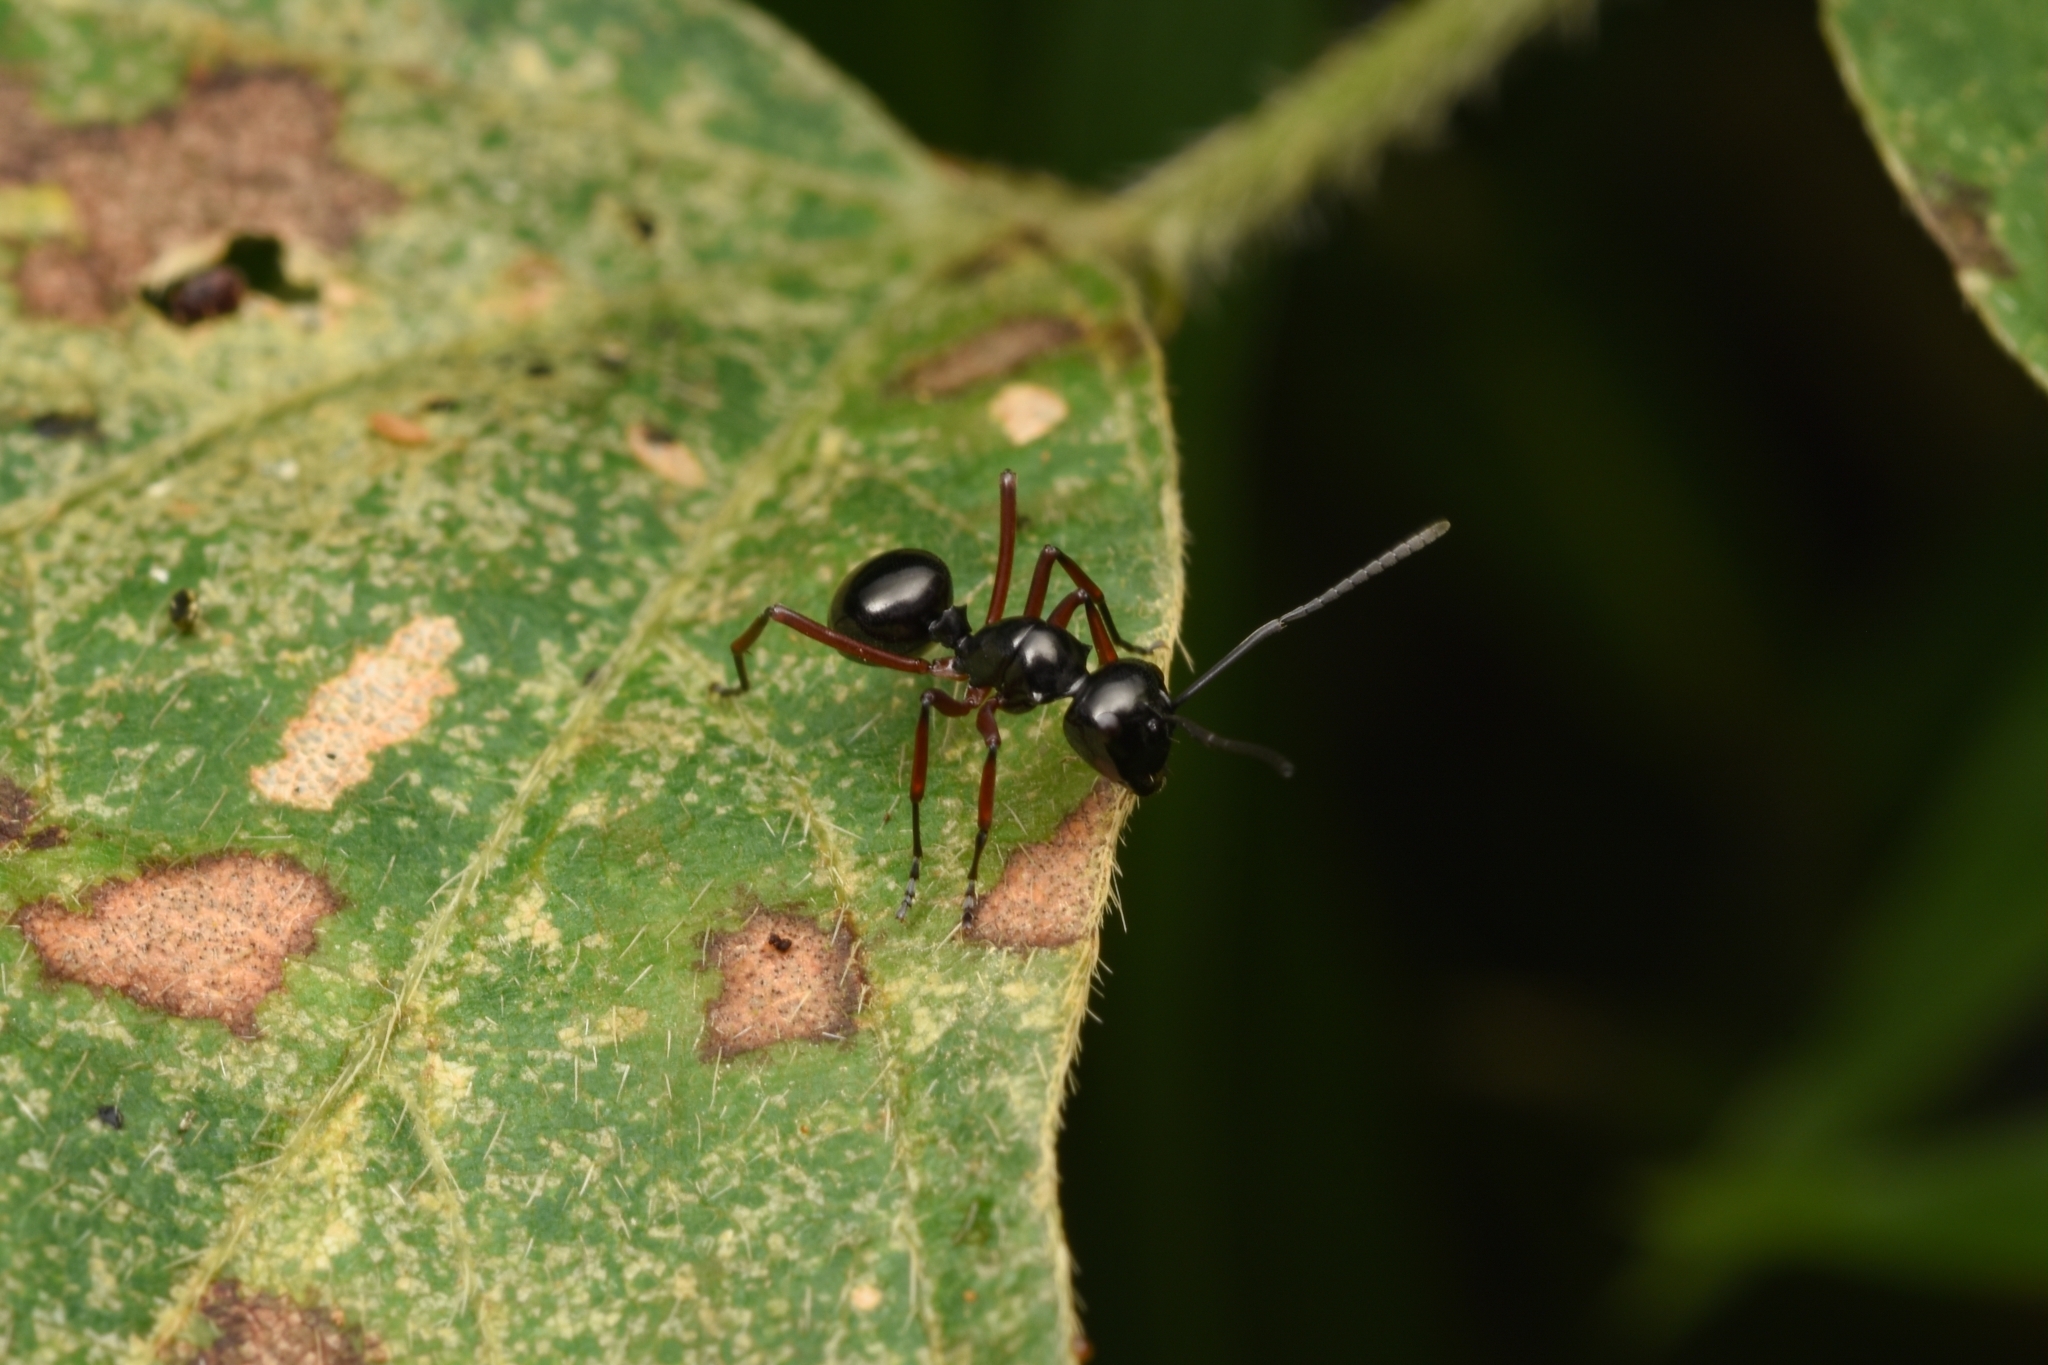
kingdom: Animalia
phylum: Arthropoda
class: Insecta
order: Hymenoptera
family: Formicidae
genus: Polyrhachis
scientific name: Polyrhachis laevissima
